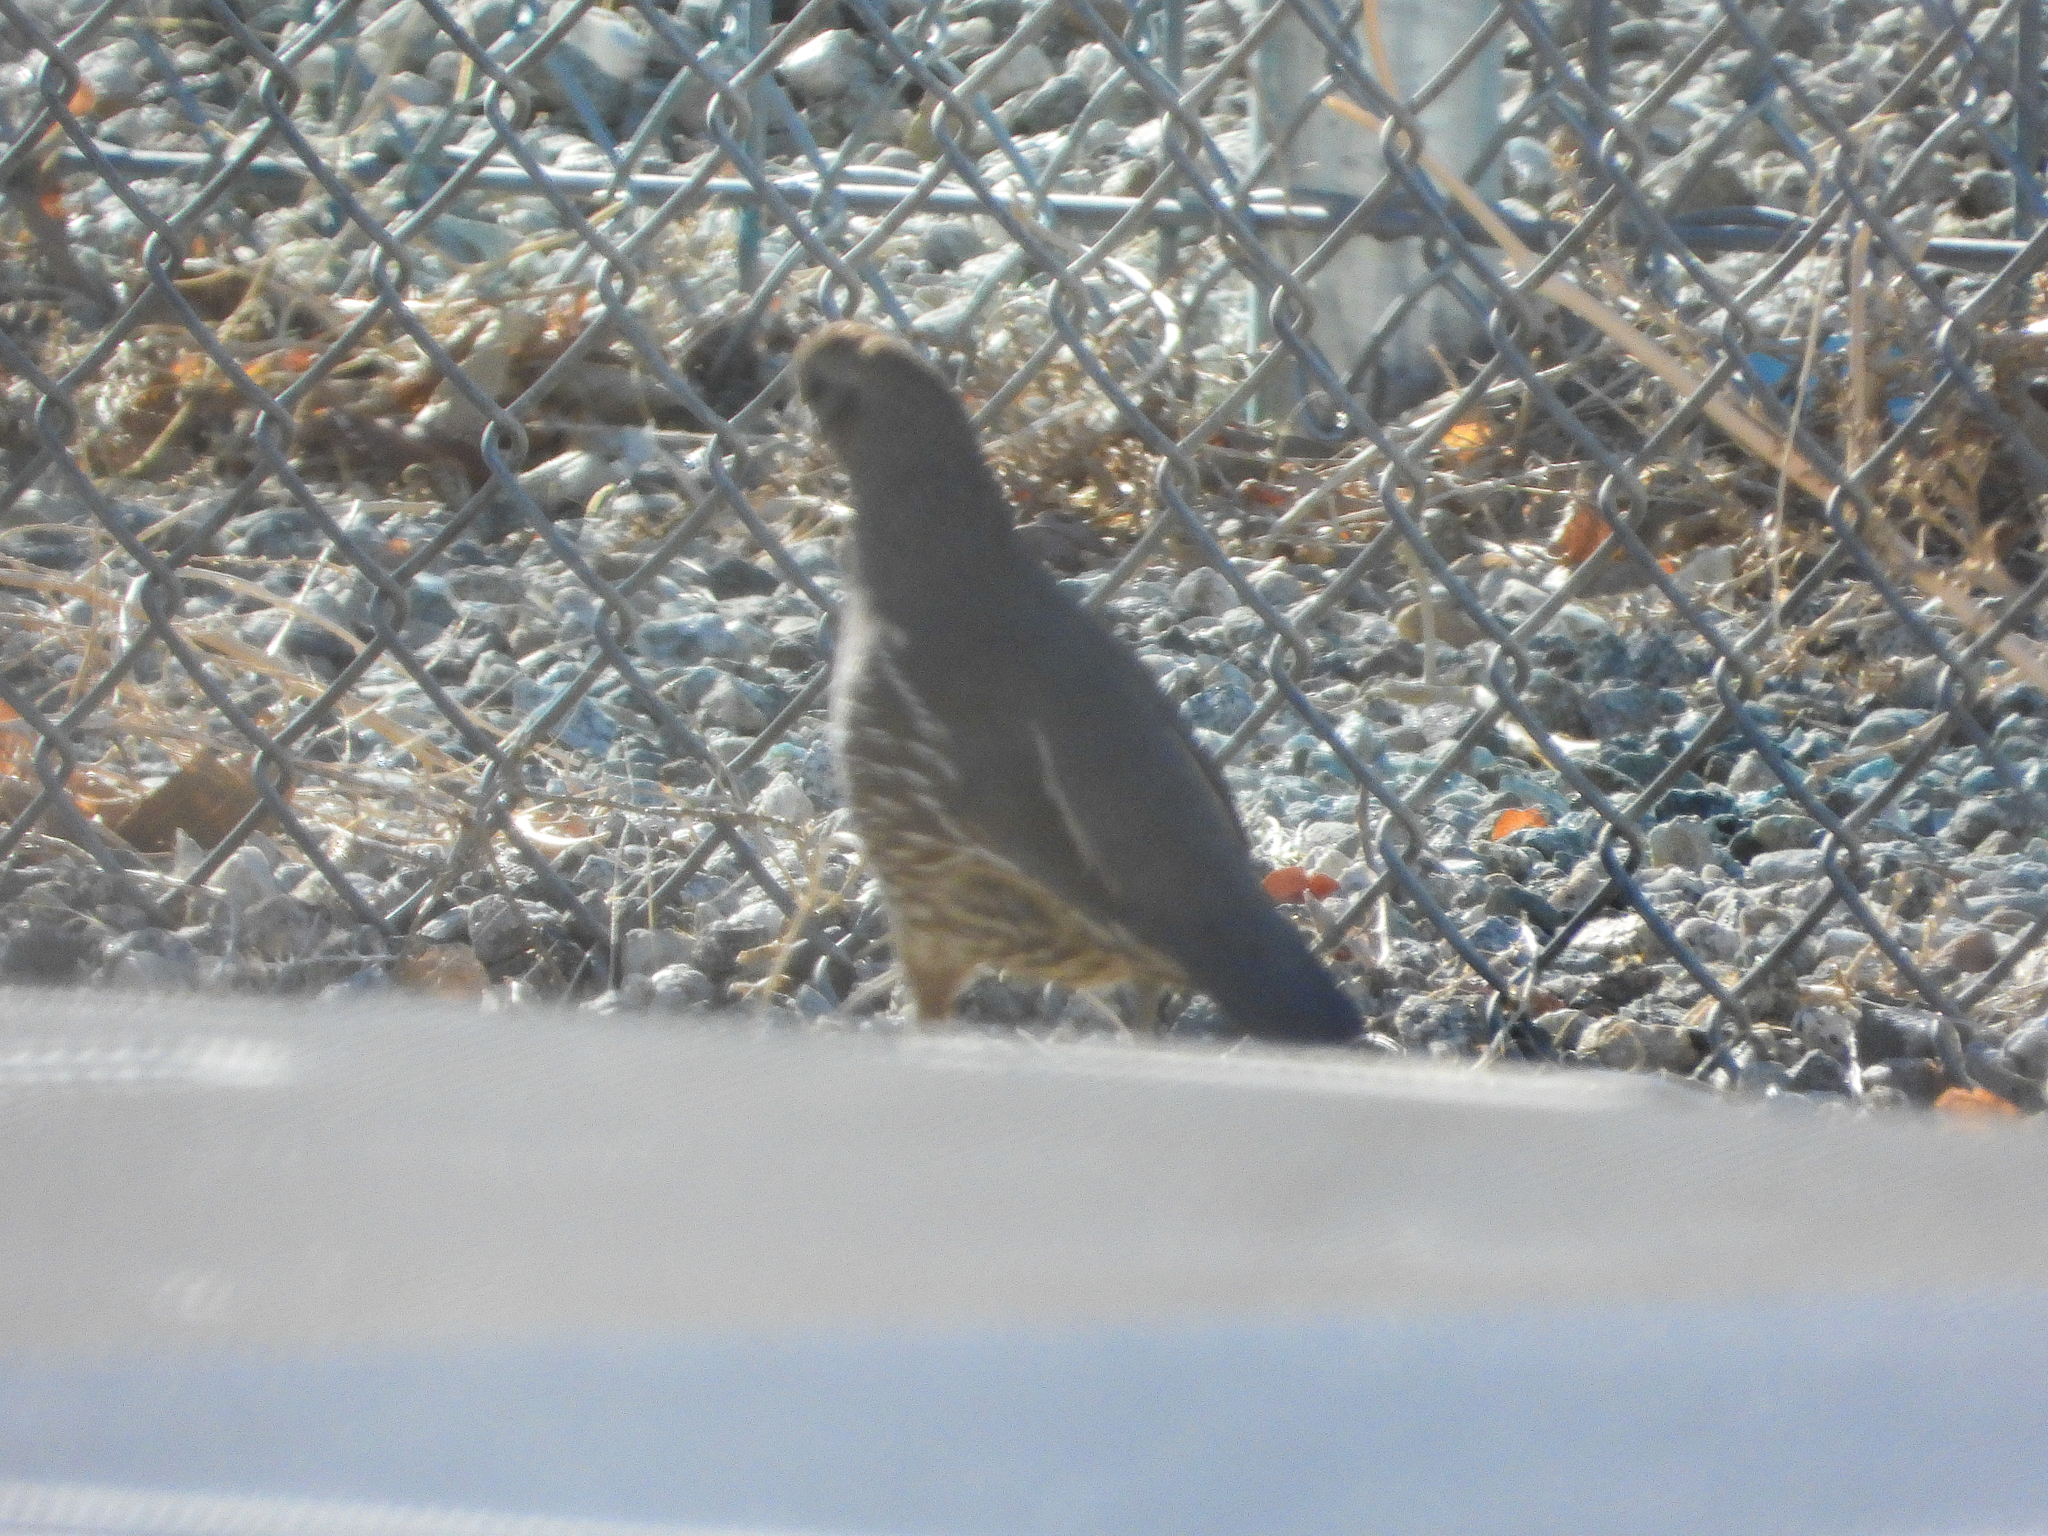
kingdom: Animalia
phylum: Chordata
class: Aves
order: Galliformes
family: Odontophoridae
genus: Callipepla
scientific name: Callipepla californica
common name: California quail
